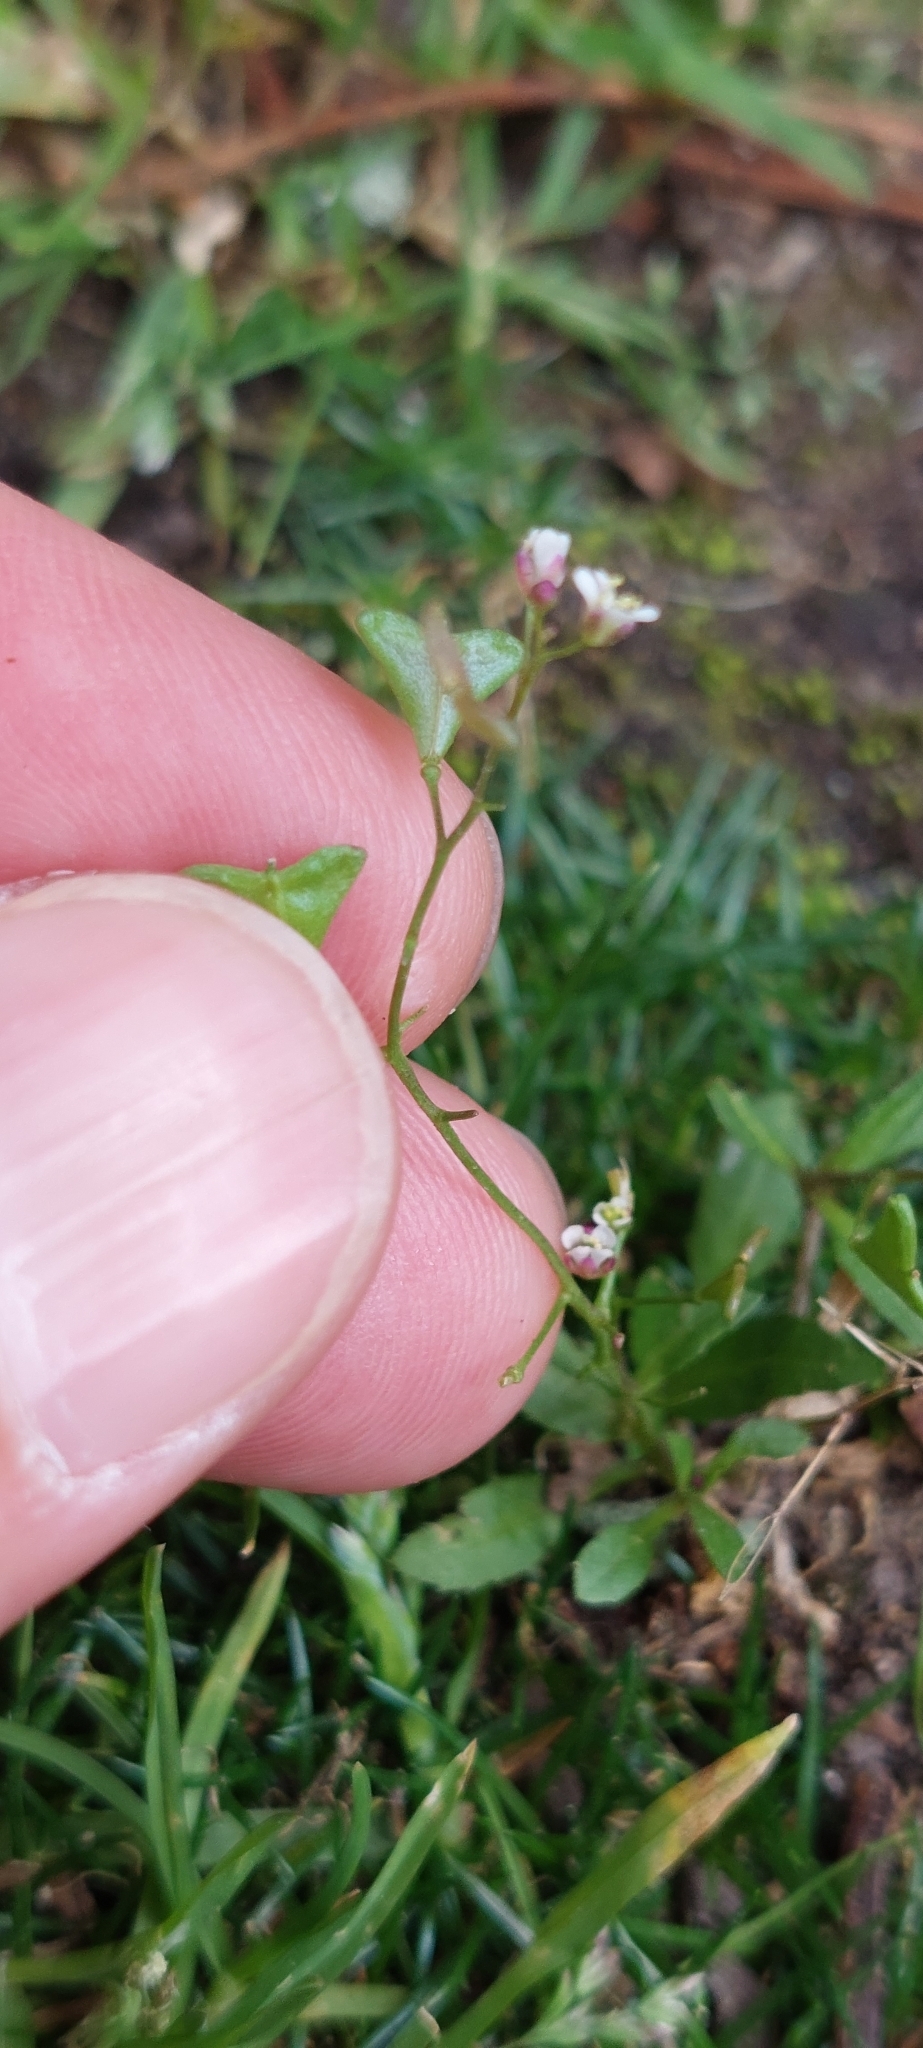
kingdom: Plantae
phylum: Tracheophyta
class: Magnoliopsida
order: Brassicales
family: Brassicaceae
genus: Capsella
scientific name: Capsella bursa-pastoris
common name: Shepherd's purse
